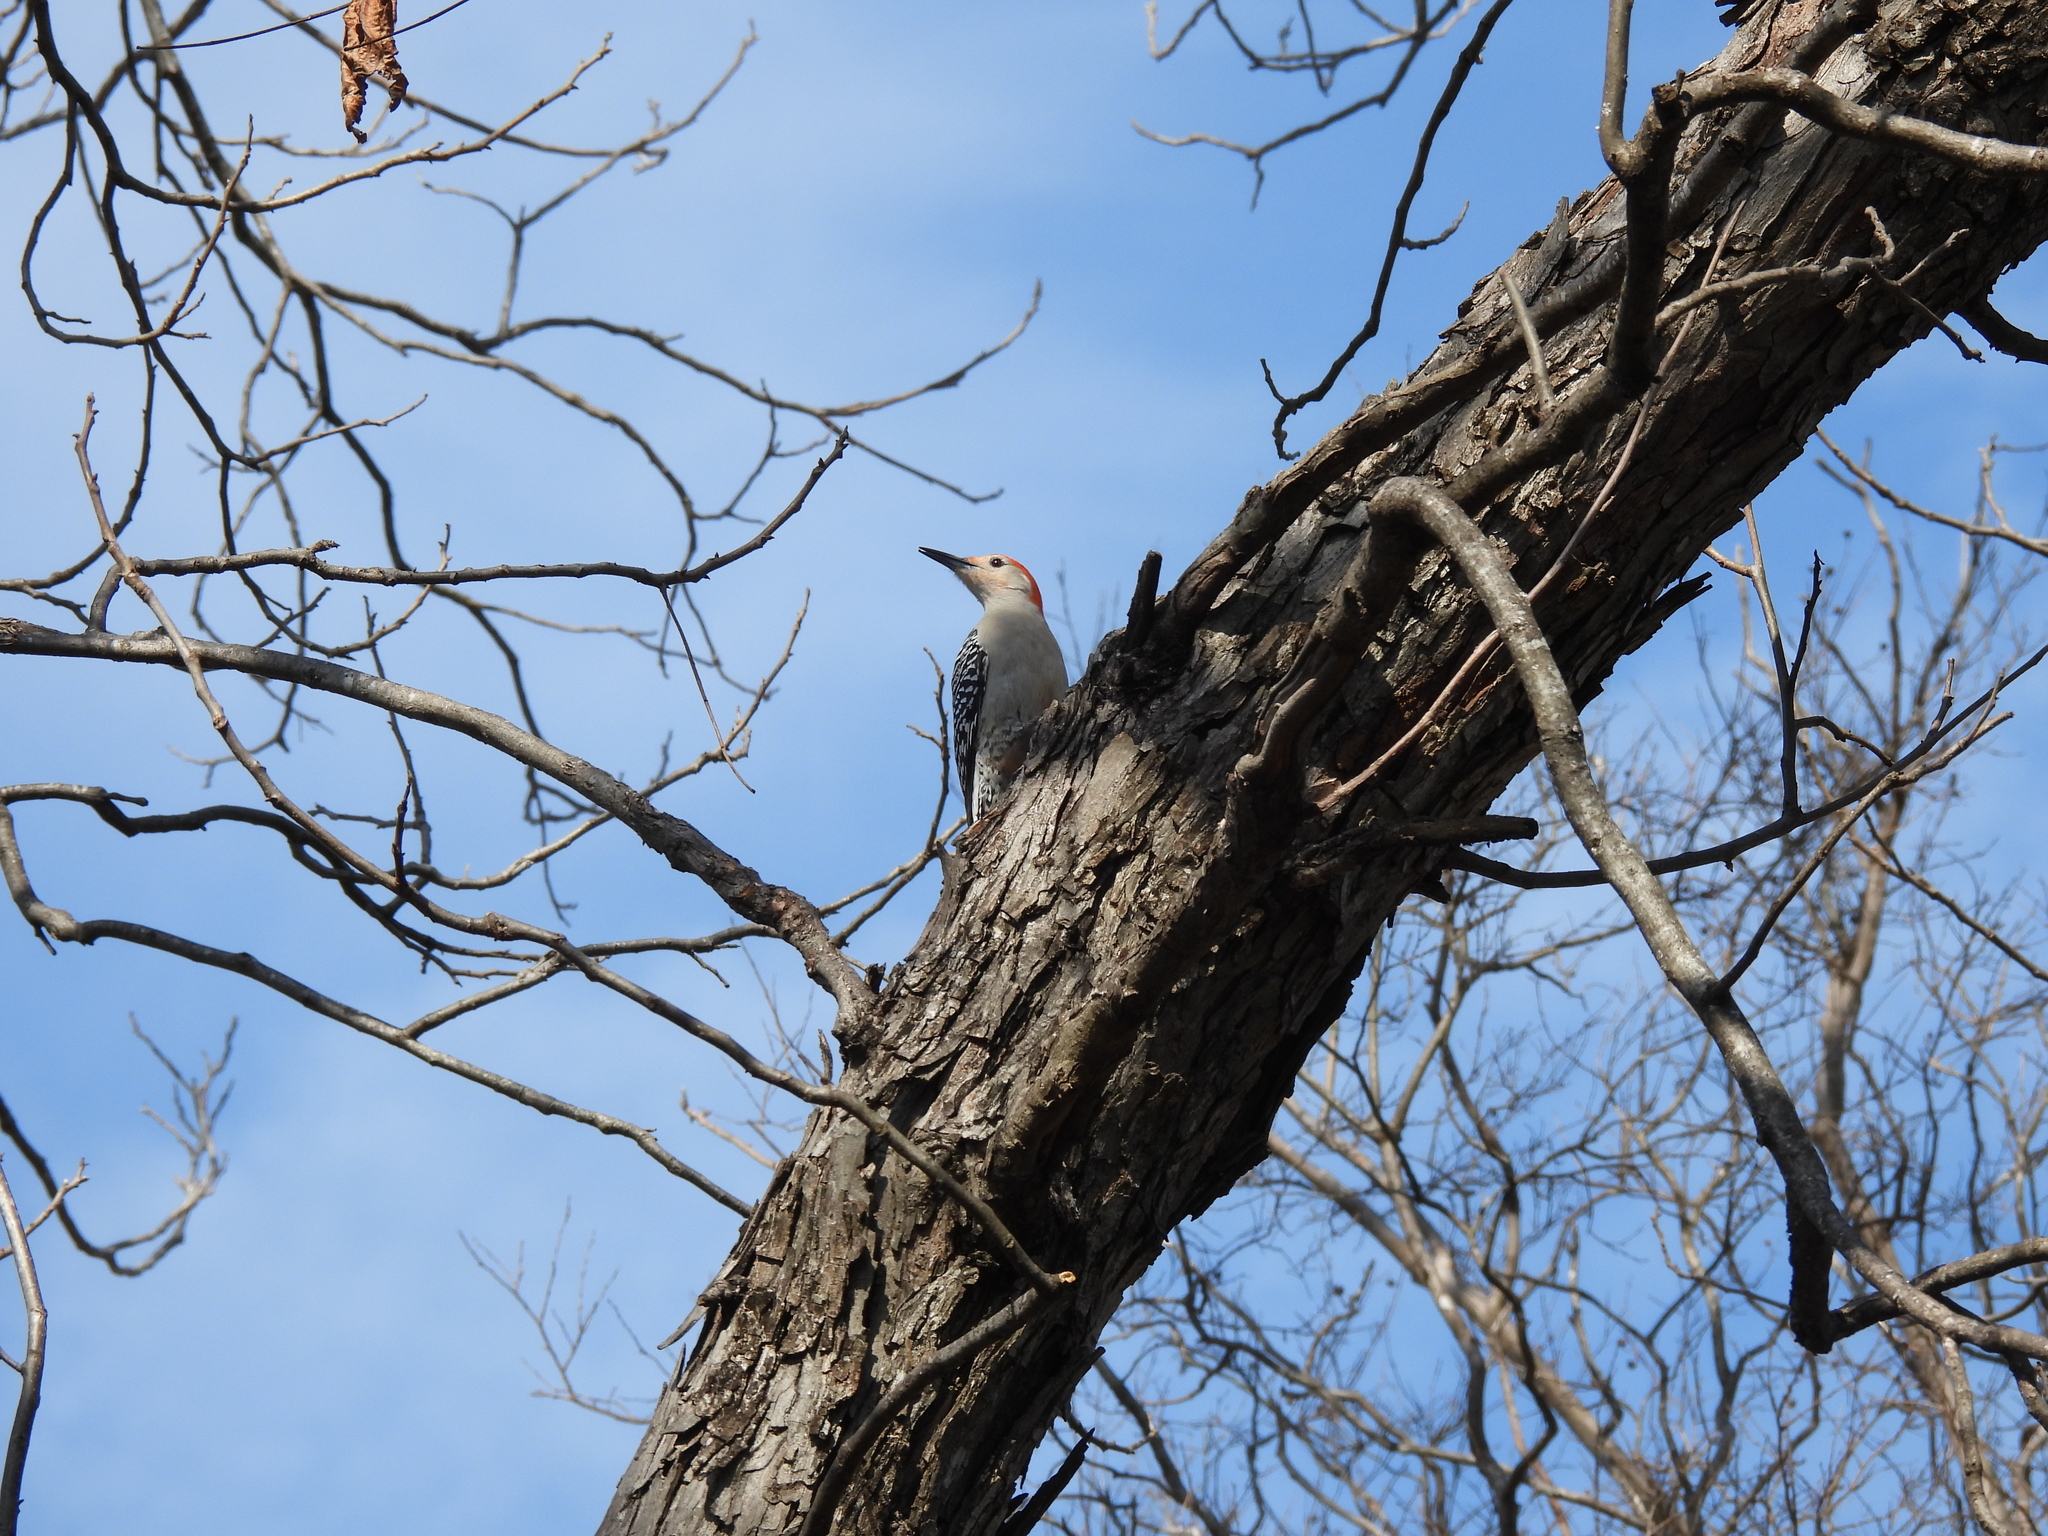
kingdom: Animalia
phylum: Chordata
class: Aves
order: Piciformes
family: Picidae
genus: Melanerpes
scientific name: Melanerpes carolinus
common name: Red-bellied woodpecker
